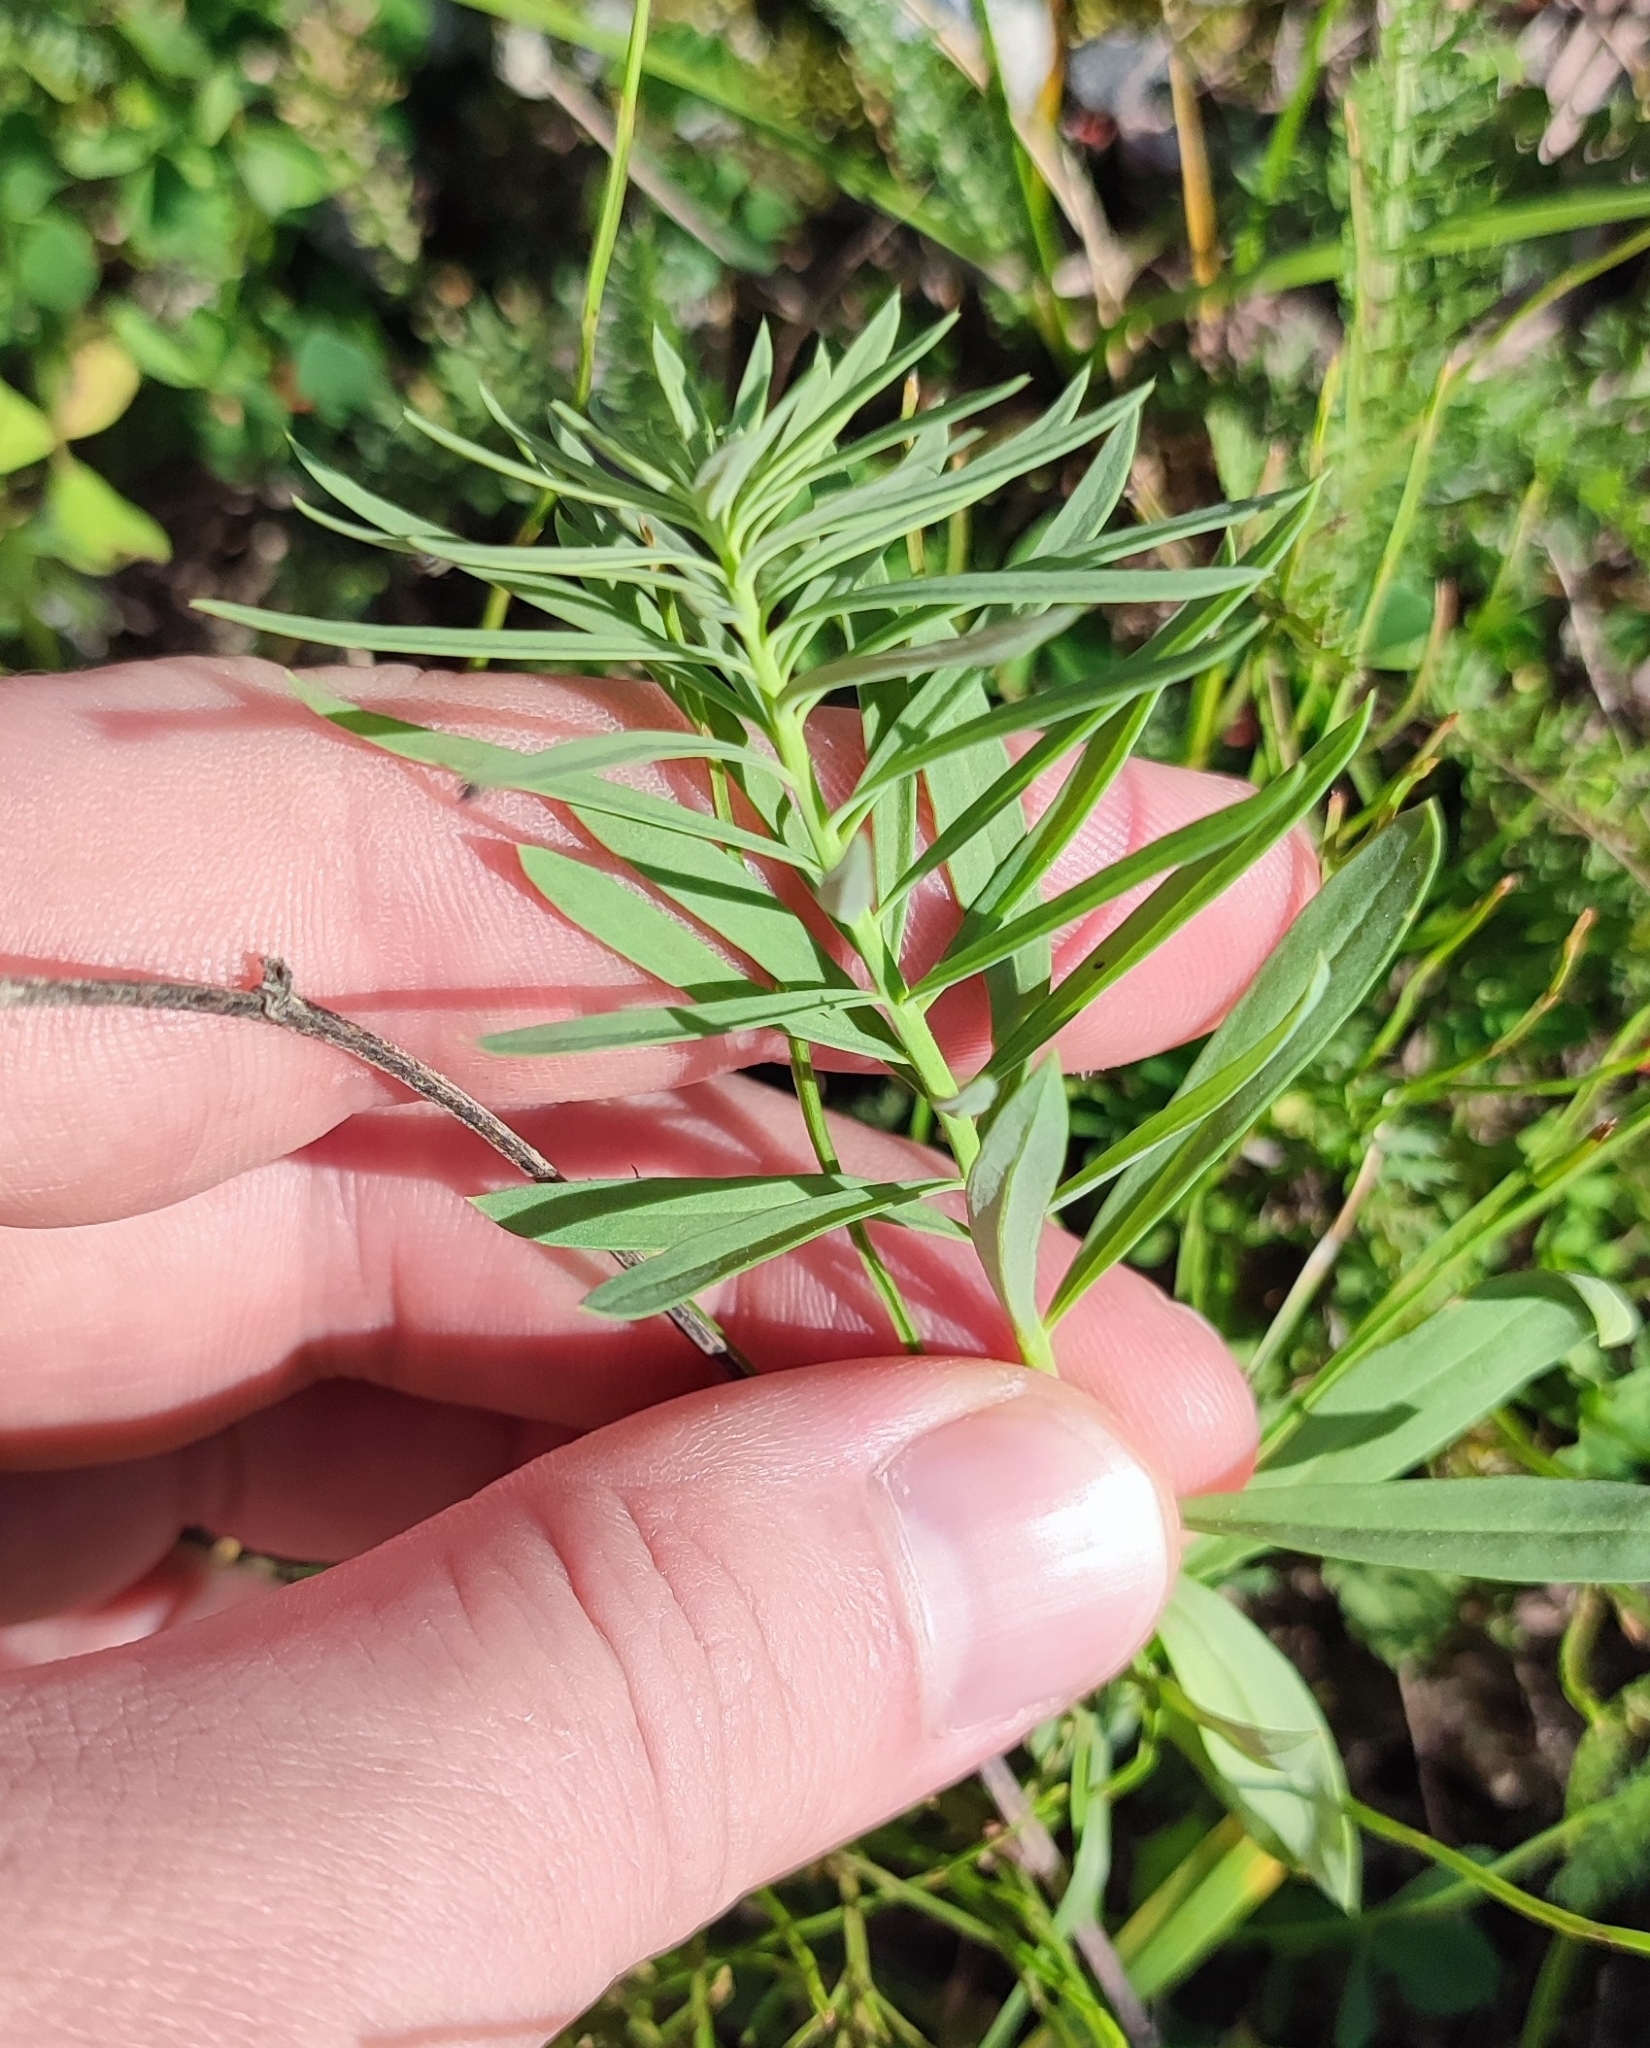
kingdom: Plantae
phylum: Tracheophyta
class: Magnoliopsida
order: Lamiales
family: Plantaginaceae
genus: Linaria
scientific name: Linaria vulgaris
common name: Butter and eggs
